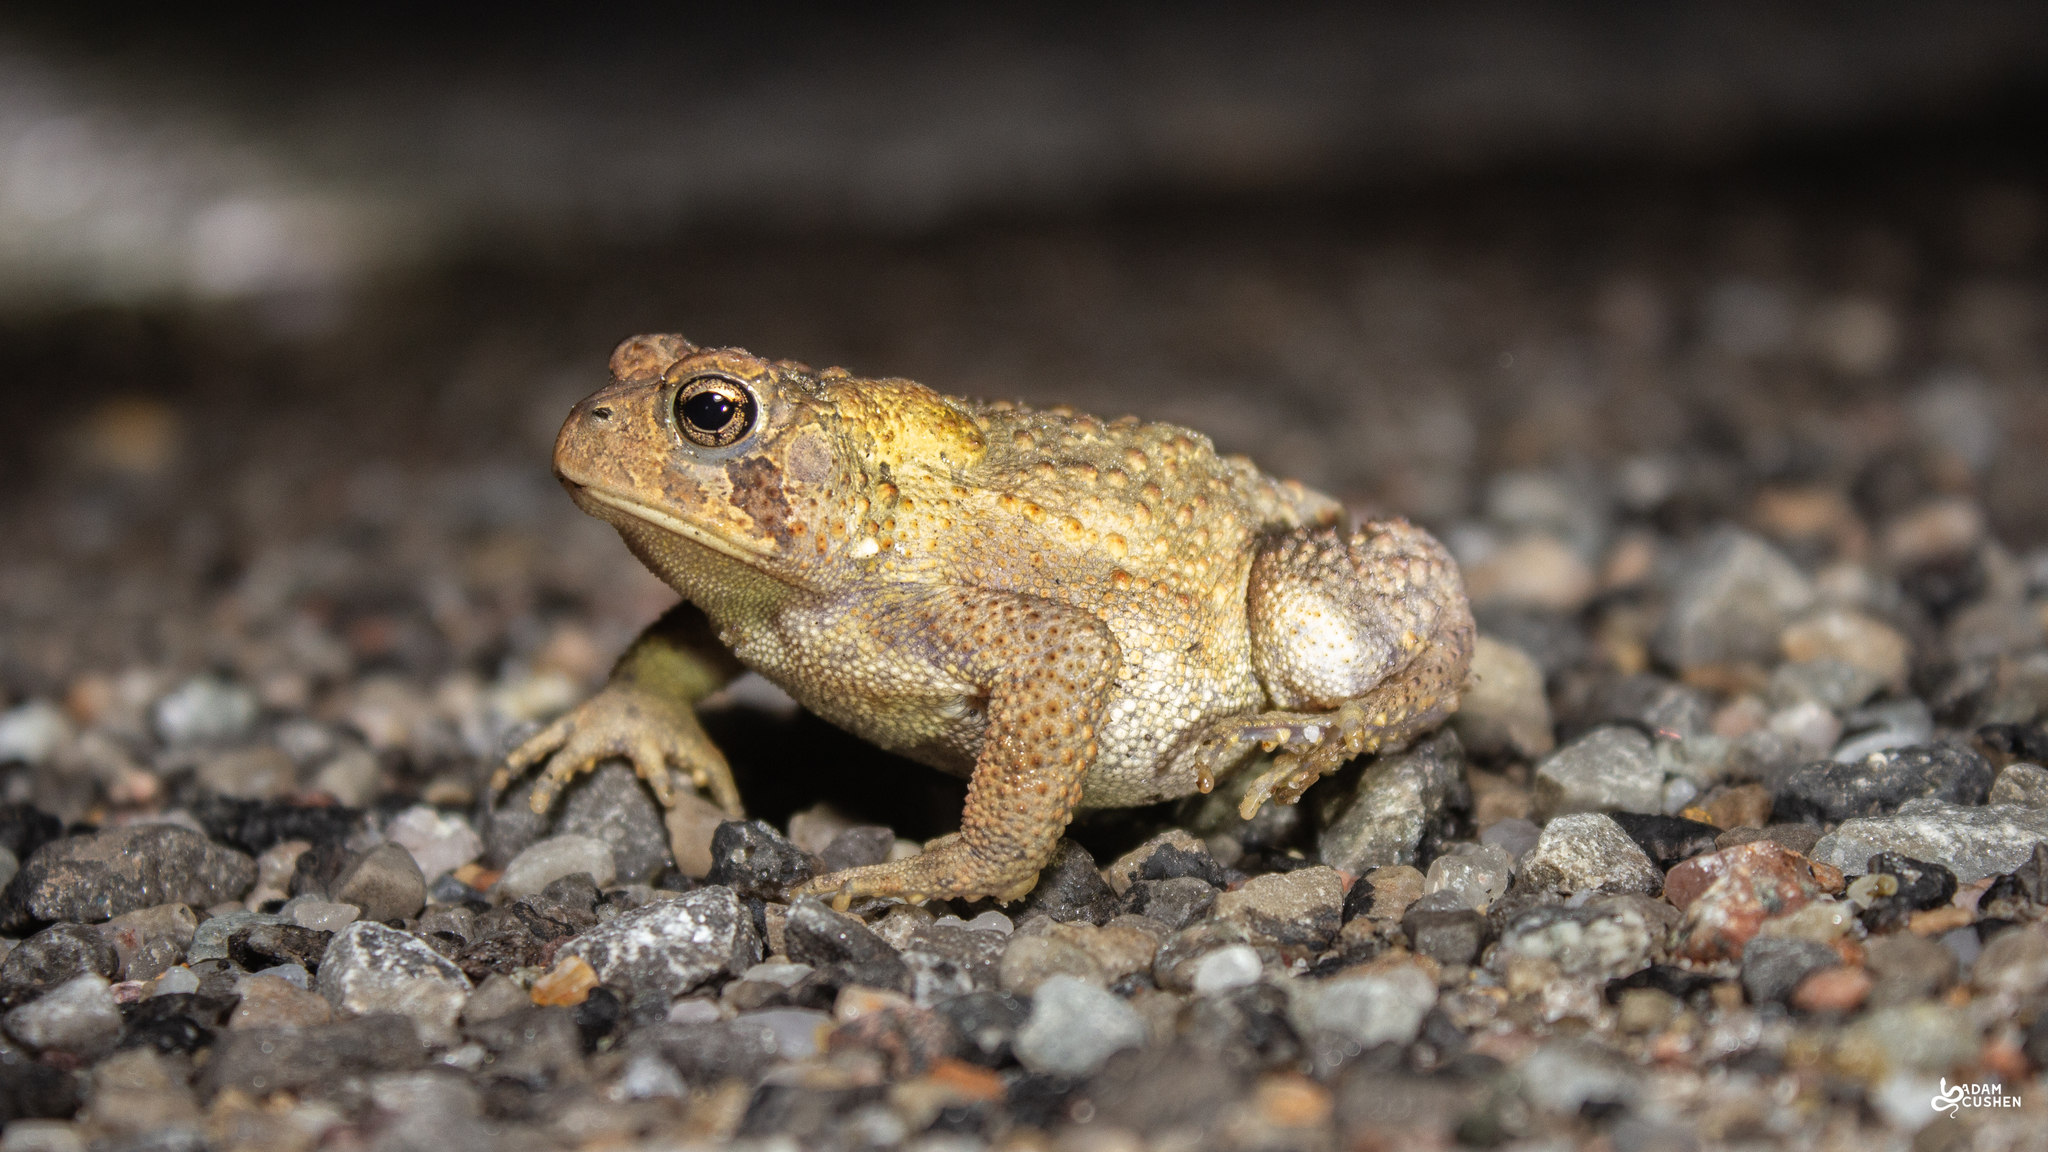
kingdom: Animalia
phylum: Chordata
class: Amphibia
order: Anura
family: Bufonidae
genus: Anaxyrus
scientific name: Anaxyrus americanus
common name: American toad
